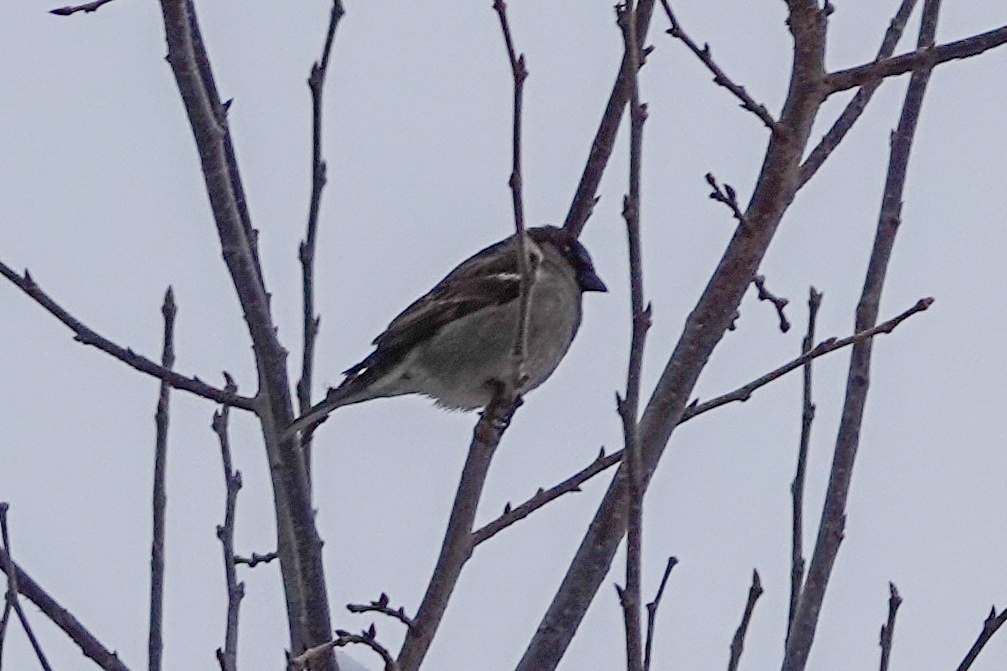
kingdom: Animalia
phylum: Chordata
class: Aves
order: Passeriformes
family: Passeridae
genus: Passer
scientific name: Passer domesticus
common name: House sparrow
